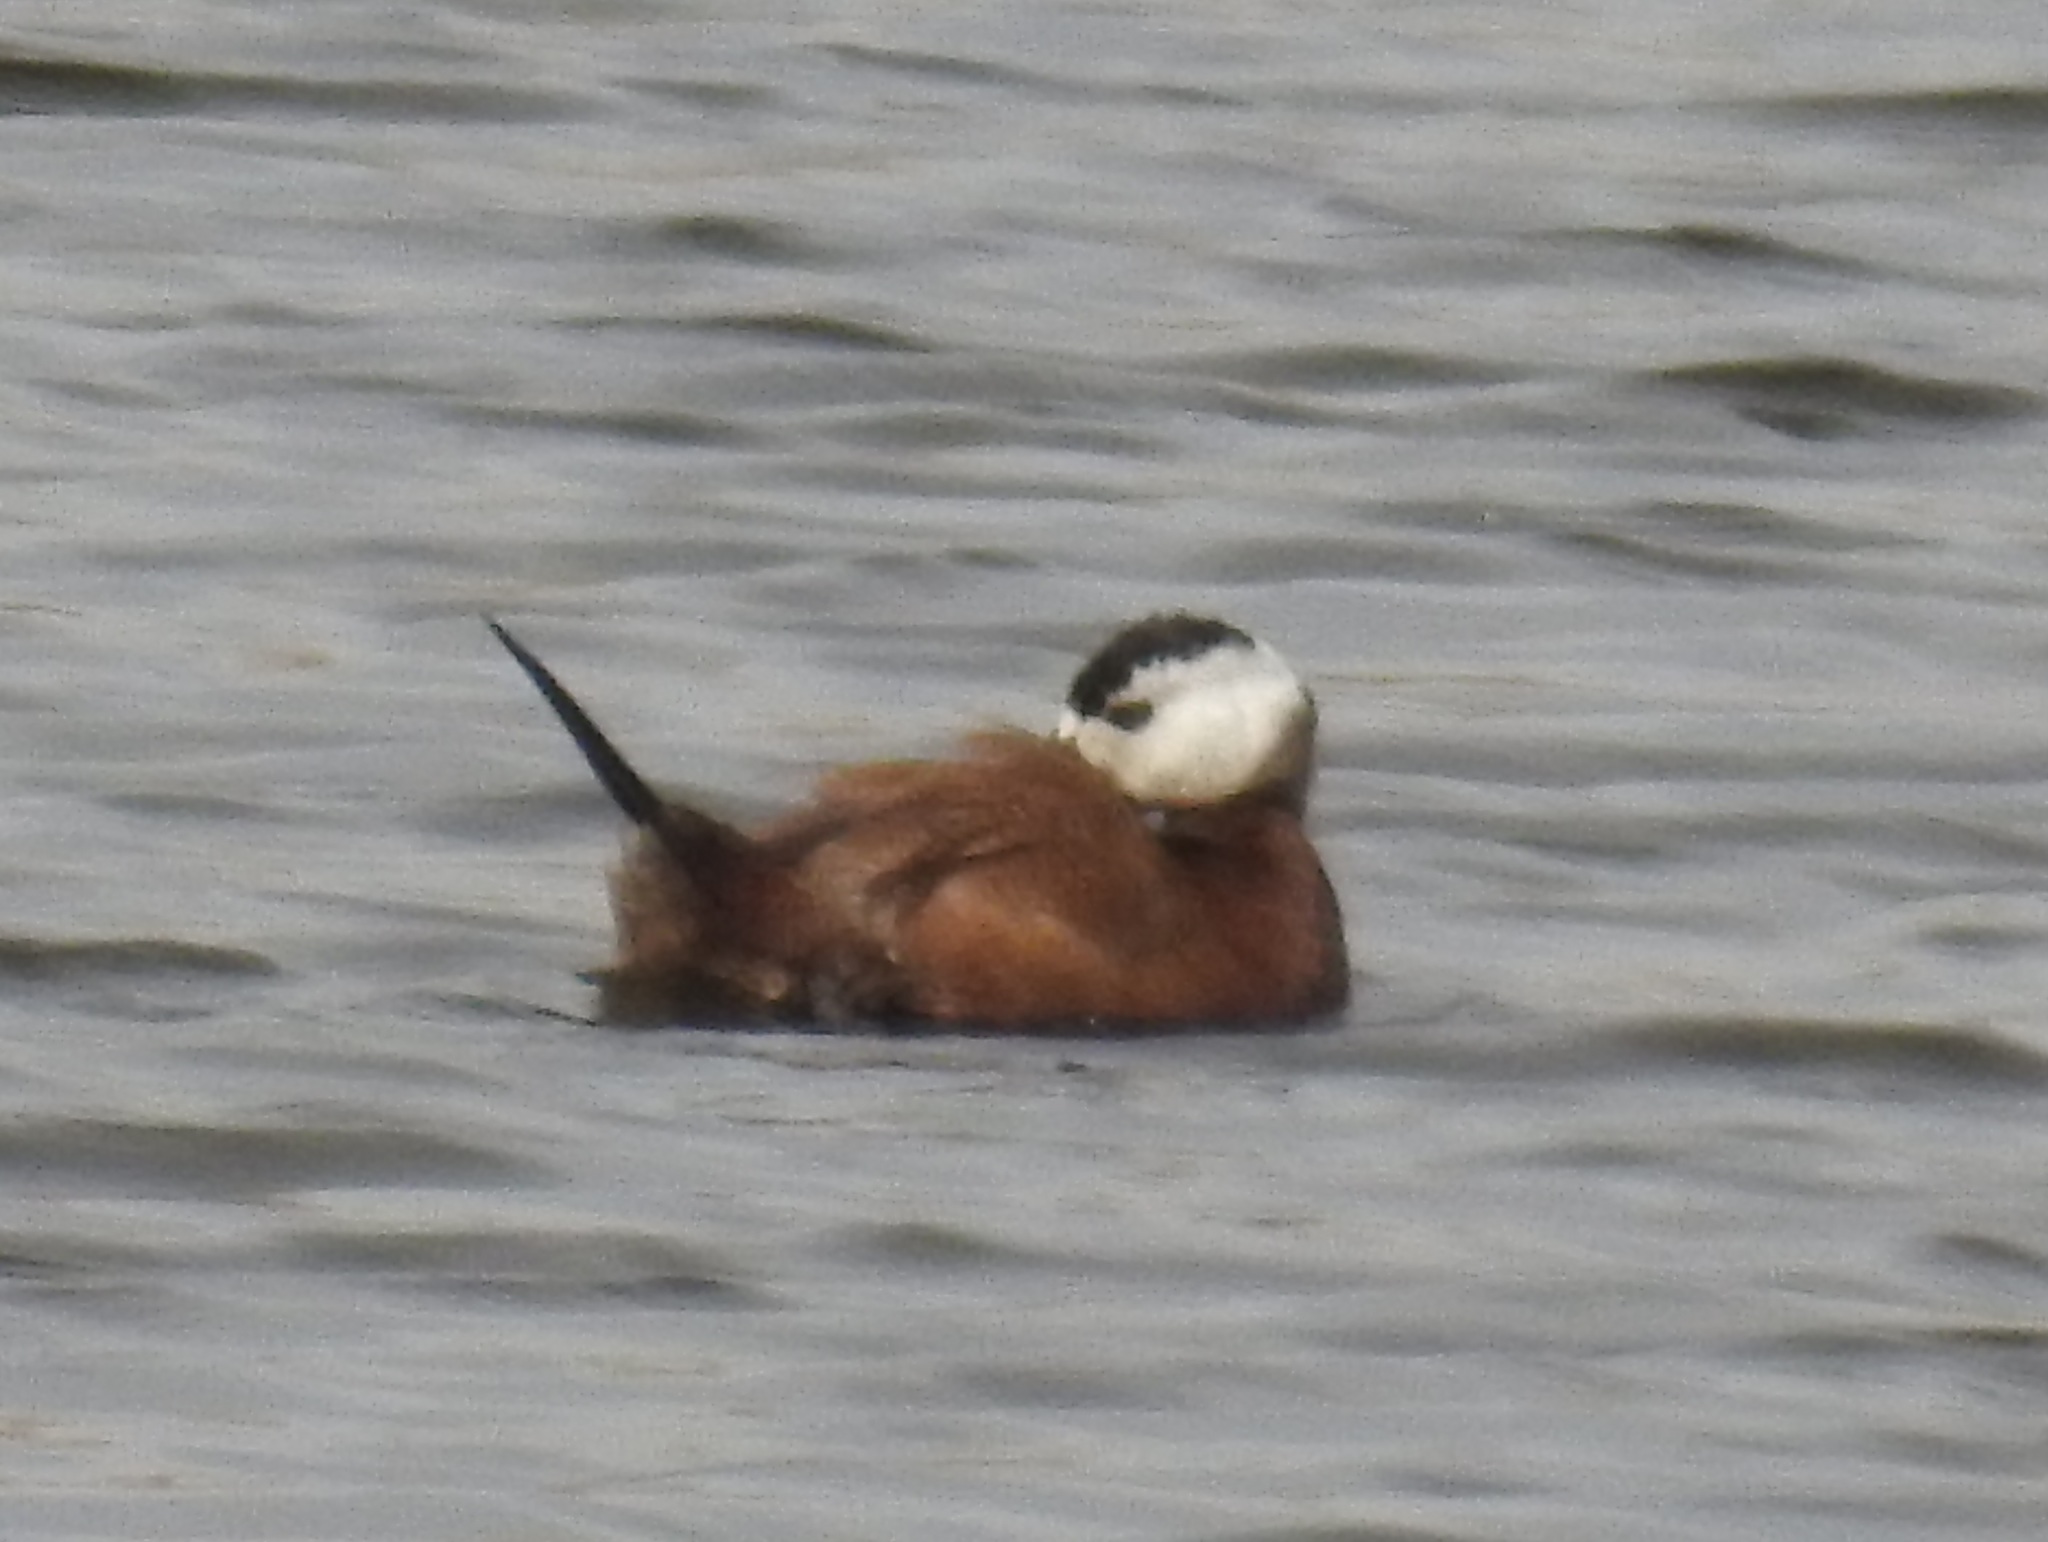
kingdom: Animalia
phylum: Chordata
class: Aves
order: Anseriformes
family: Anatidae
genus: Oxyura
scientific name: Oxyura leucocephala
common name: White-headed duck
